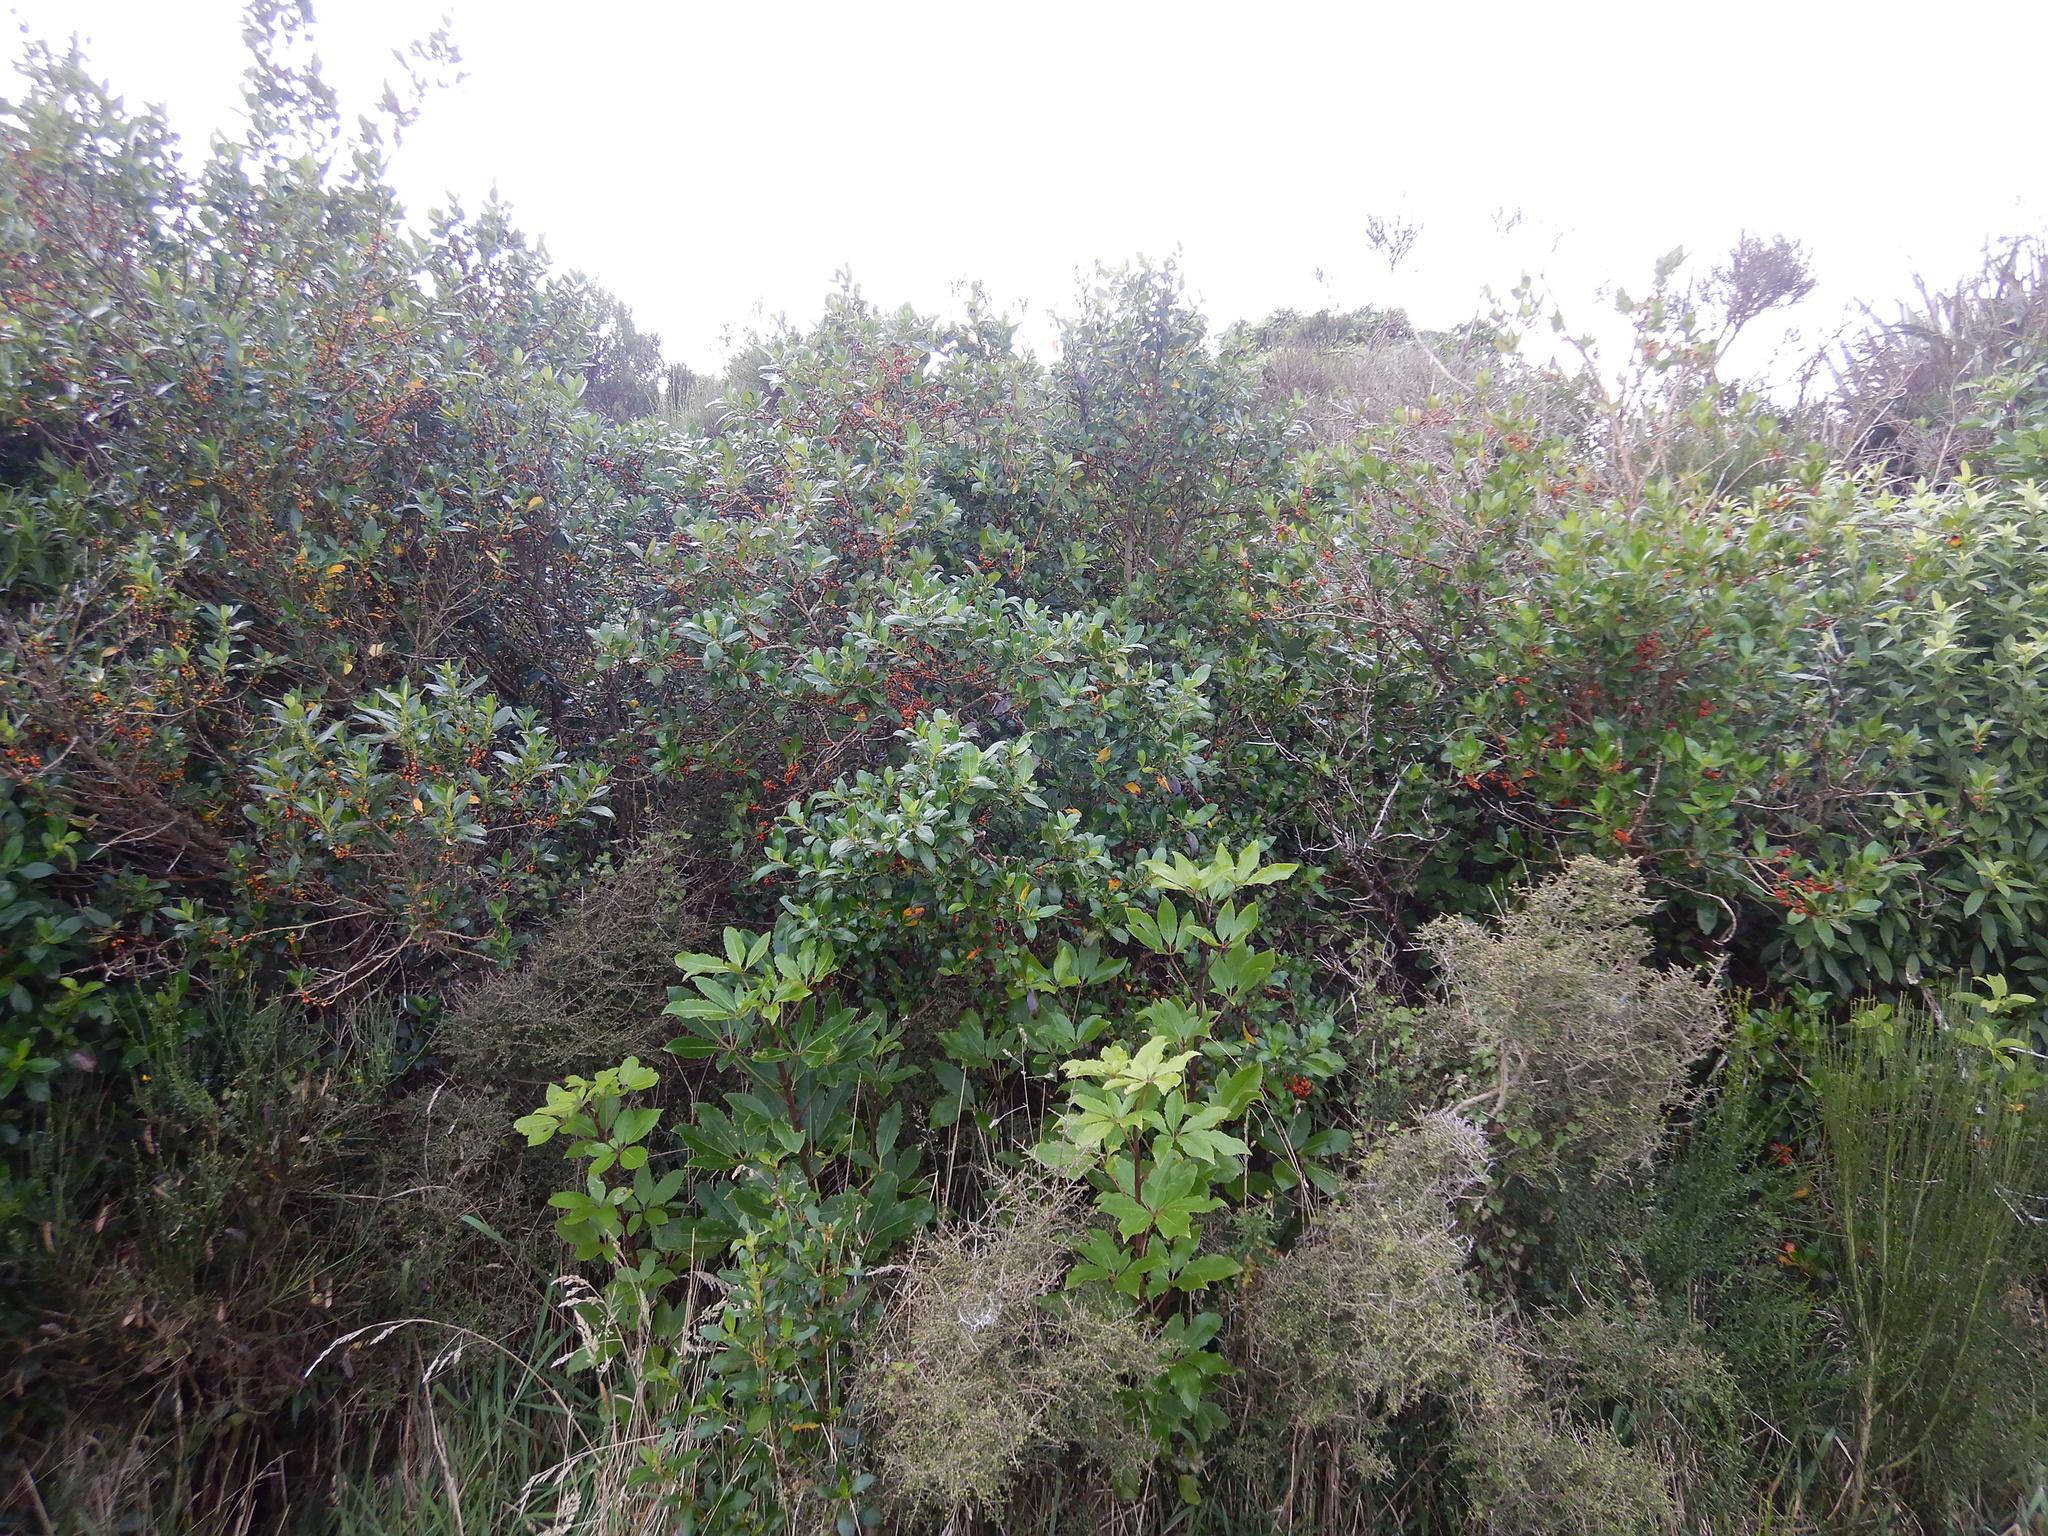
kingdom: Plantae
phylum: Tracheophyta
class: Magnoliopsida
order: Gentianales
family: Rubiaceae
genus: Coprosma
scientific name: Coprosma robusta
